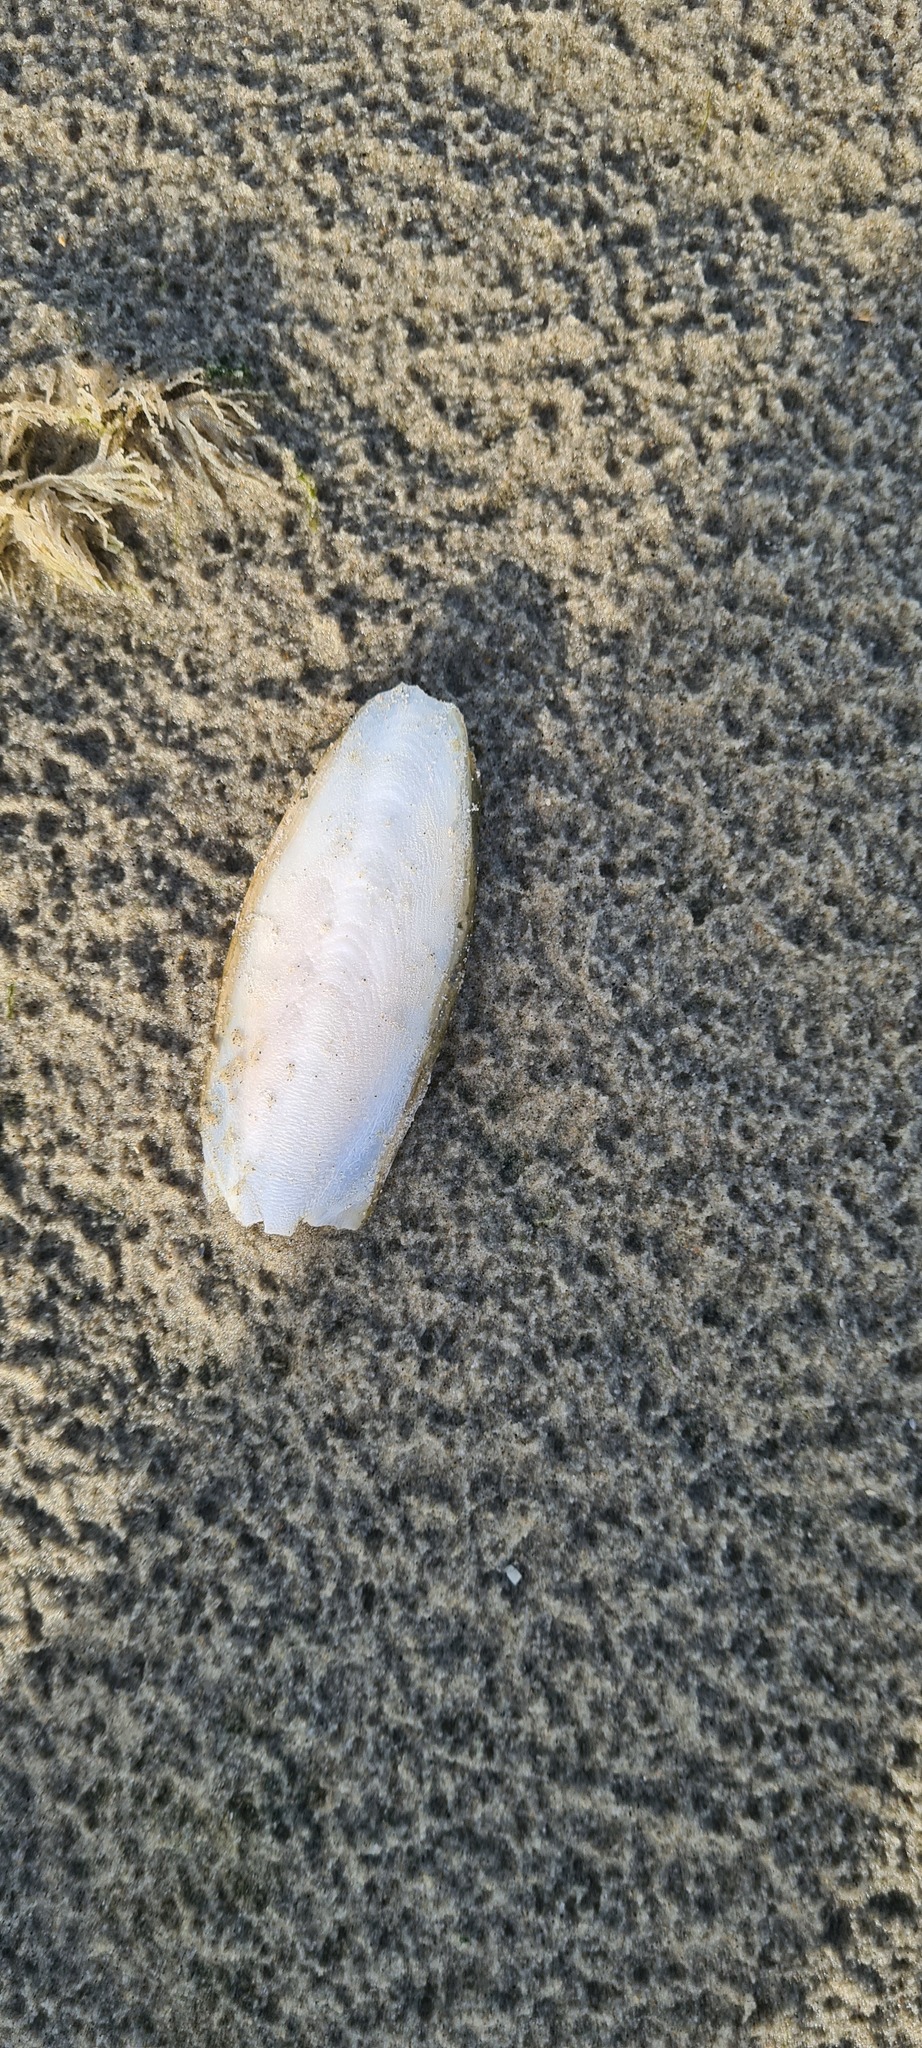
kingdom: Animalia
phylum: Mollusca
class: Cephalopoda
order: Sepiida
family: Sepiidae
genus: Sepia
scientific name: Sepia officinalis
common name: Common cuttlefish
